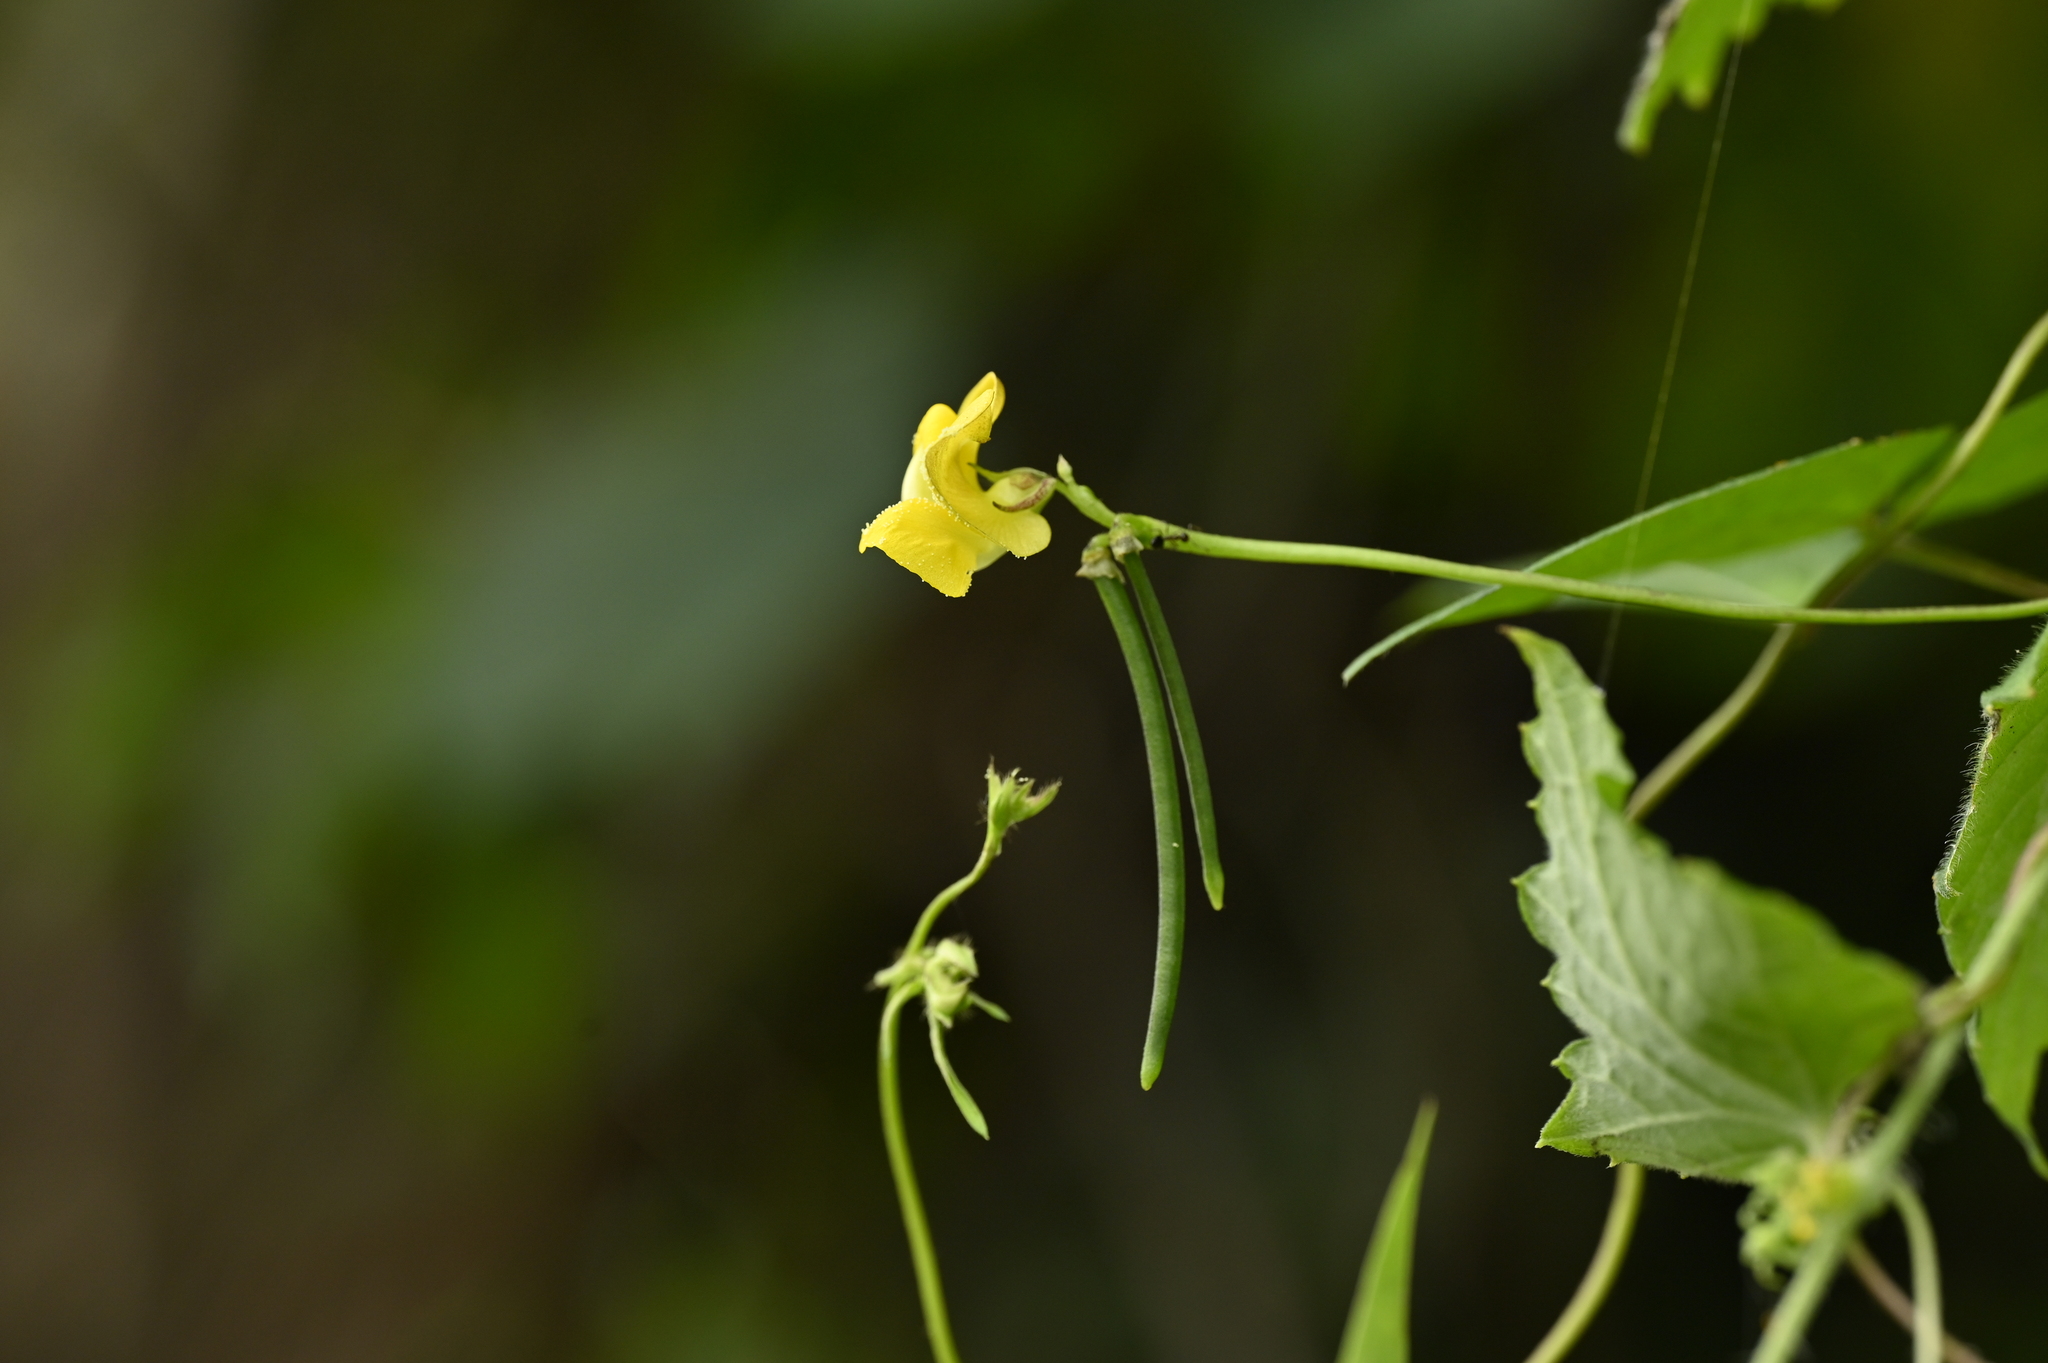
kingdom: Plantae
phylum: Tracheophyta
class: Magnoliopsida
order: Fabales
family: Fabaceae
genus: Vigna
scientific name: Vigna reflexopilosa
